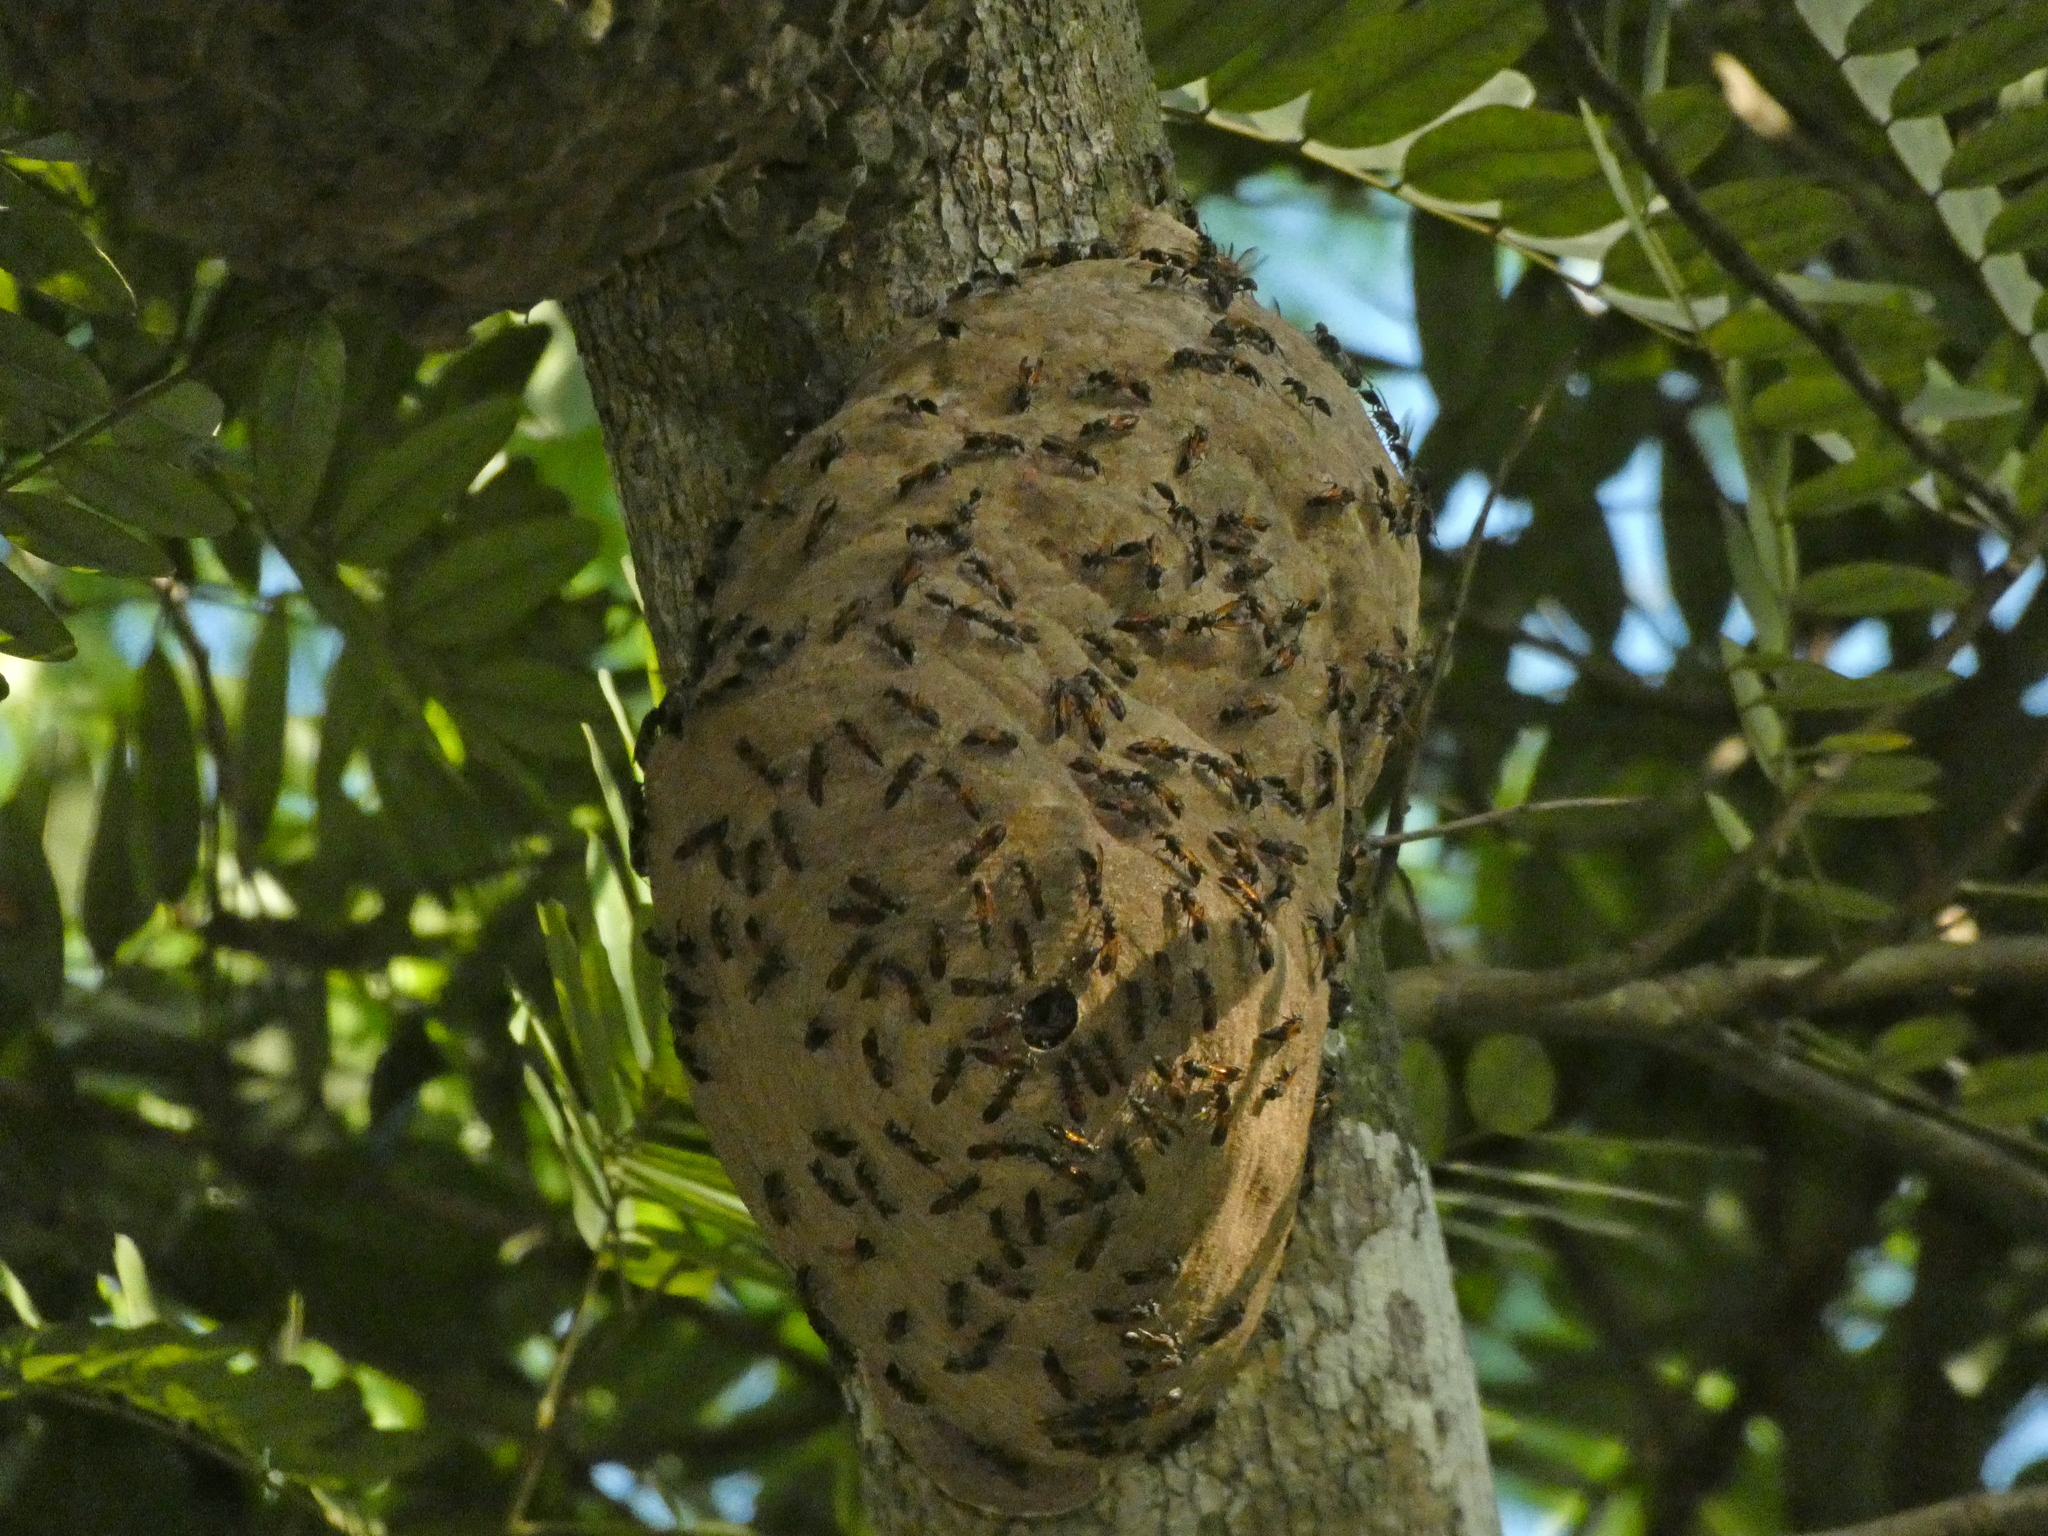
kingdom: Animalia
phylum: Arthropoda
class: Insecta
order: Hymenoptera
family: Eumenidae
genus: Polybia
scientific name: Polybia rejecta
